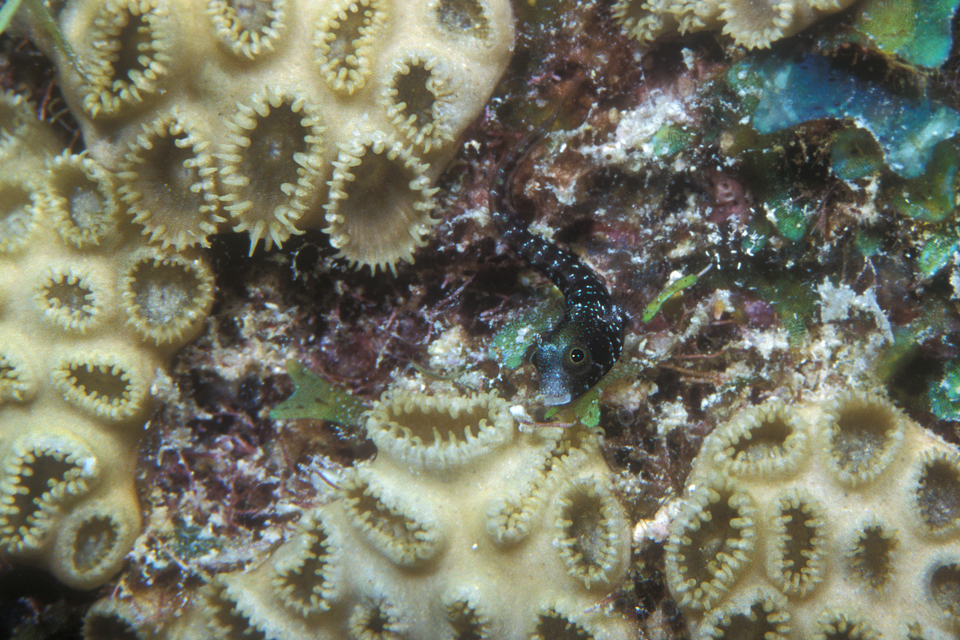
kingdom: Animalia
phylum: Chordata
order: Perciformes
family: Chaenopsidae
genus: Acanthemblemaria
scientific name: Acanthemblemaria spinosa
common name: Spinyhead blenny
